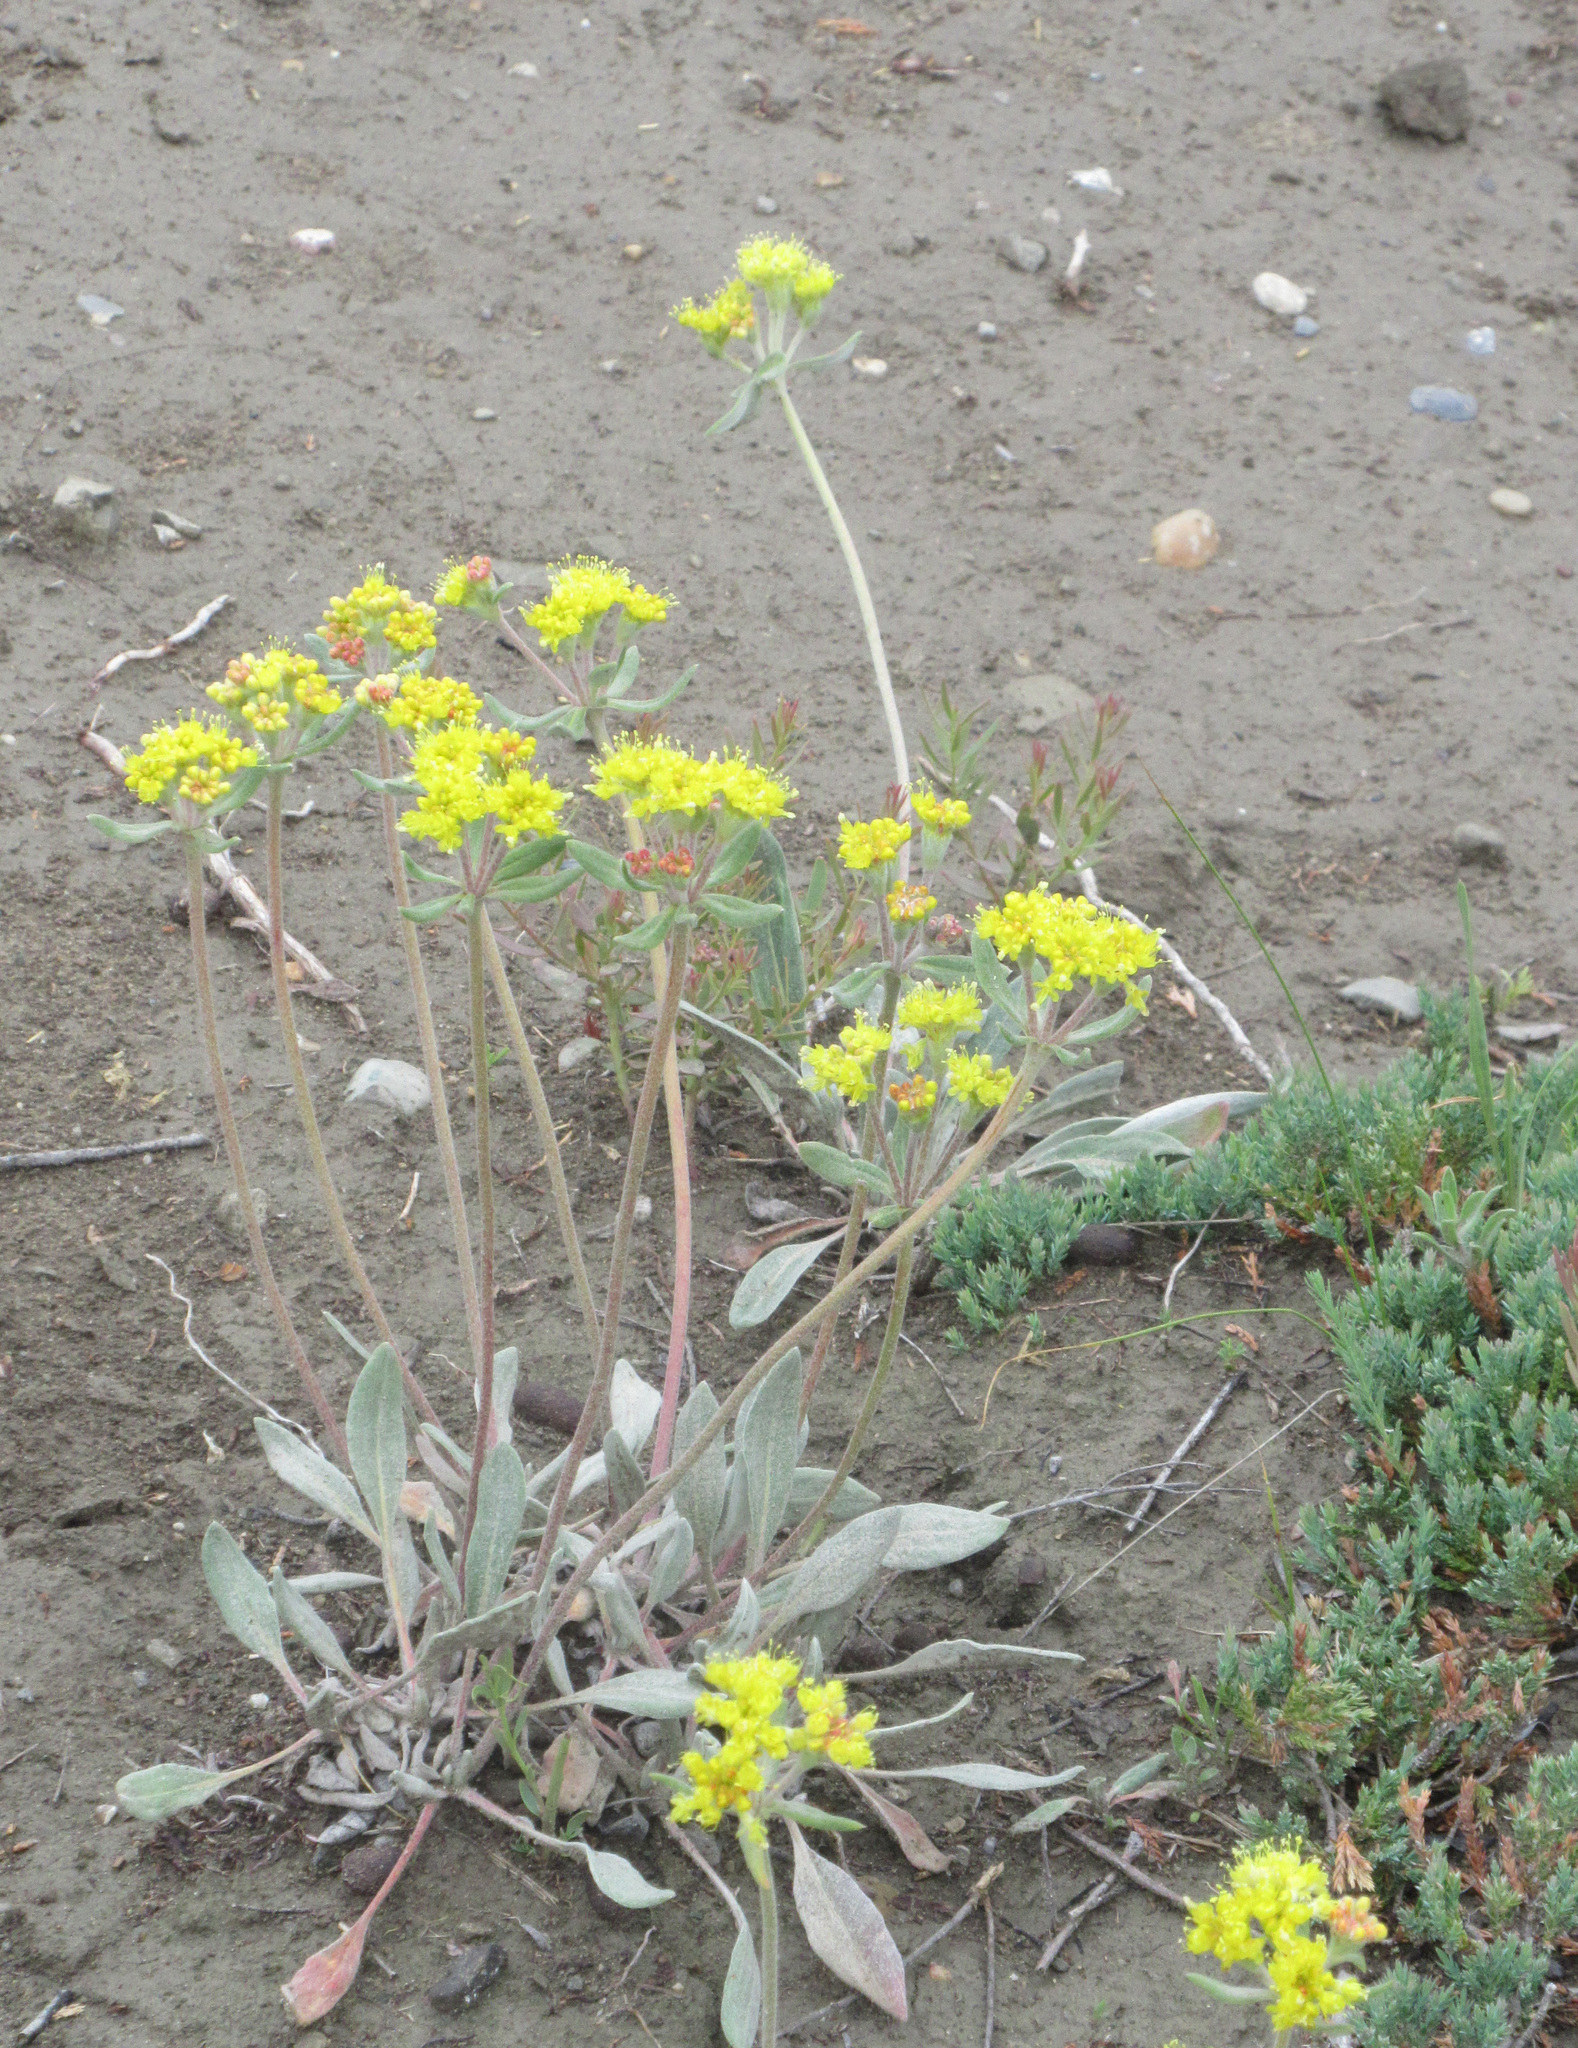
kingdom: Plantae
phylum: Tracheophyta
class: Magnoliopsida
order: Caryophyllales
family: Polygonaceae
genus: Eriogonum
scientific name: Eriogonum flavum
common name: Alpine golden wild buckwheat
